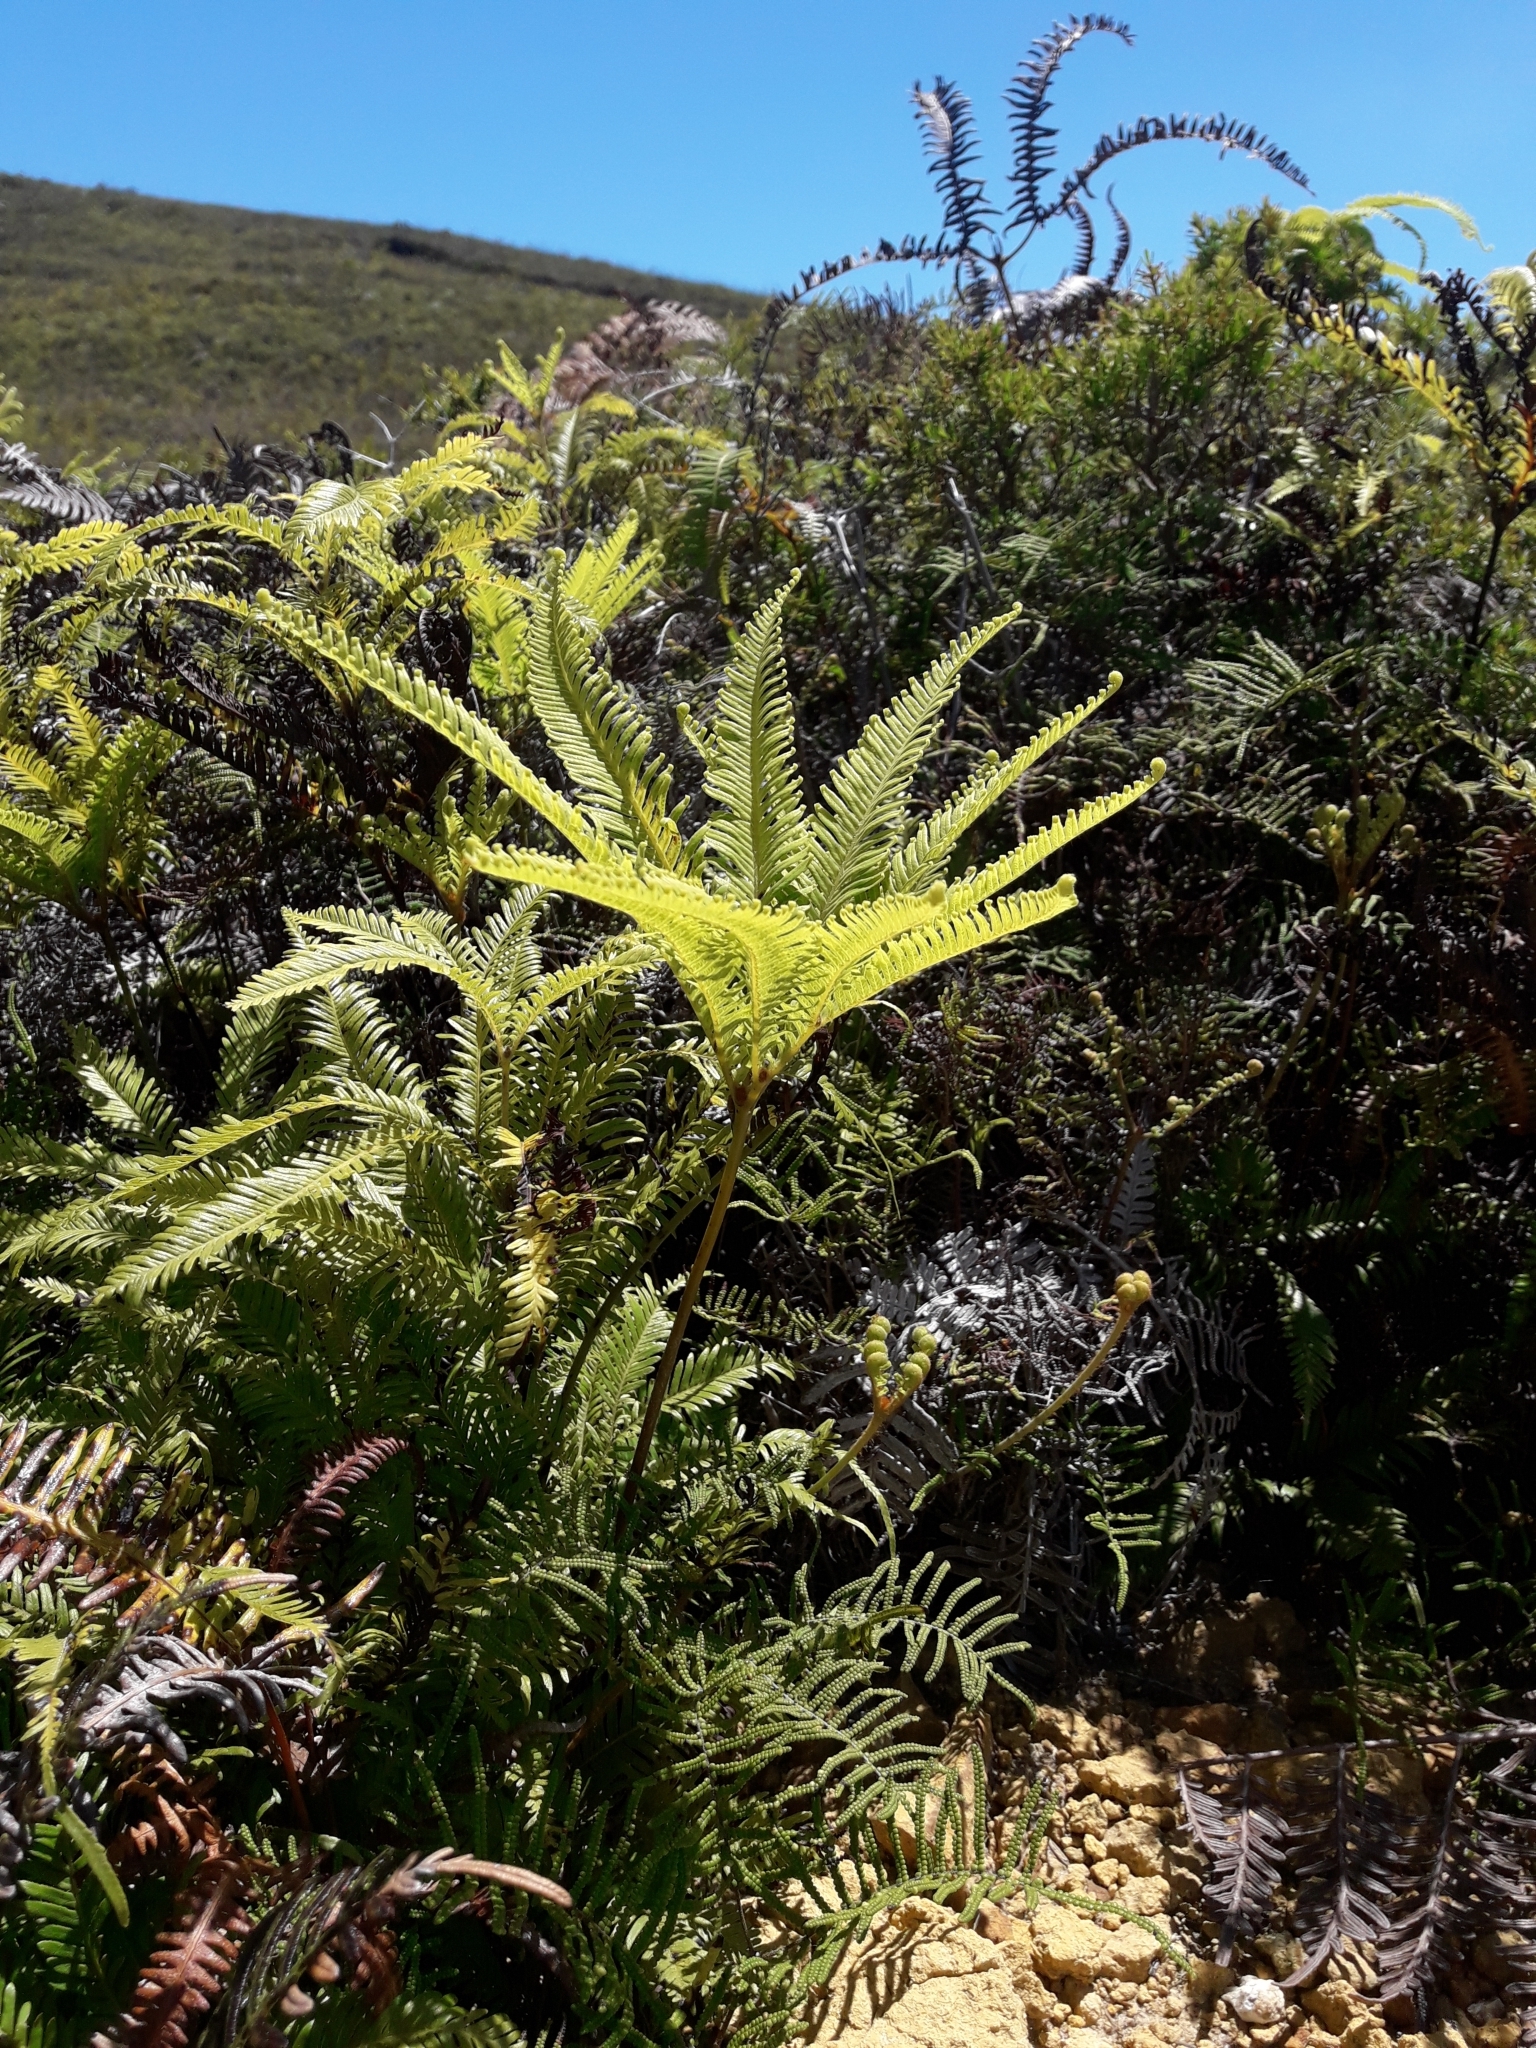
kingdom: Plantae
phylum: Tracheophyta
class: Polypodiopsida
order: Gleicheniales
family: Gleicheniaceae
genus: Sticherus
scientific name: Sticherus flabellatus
